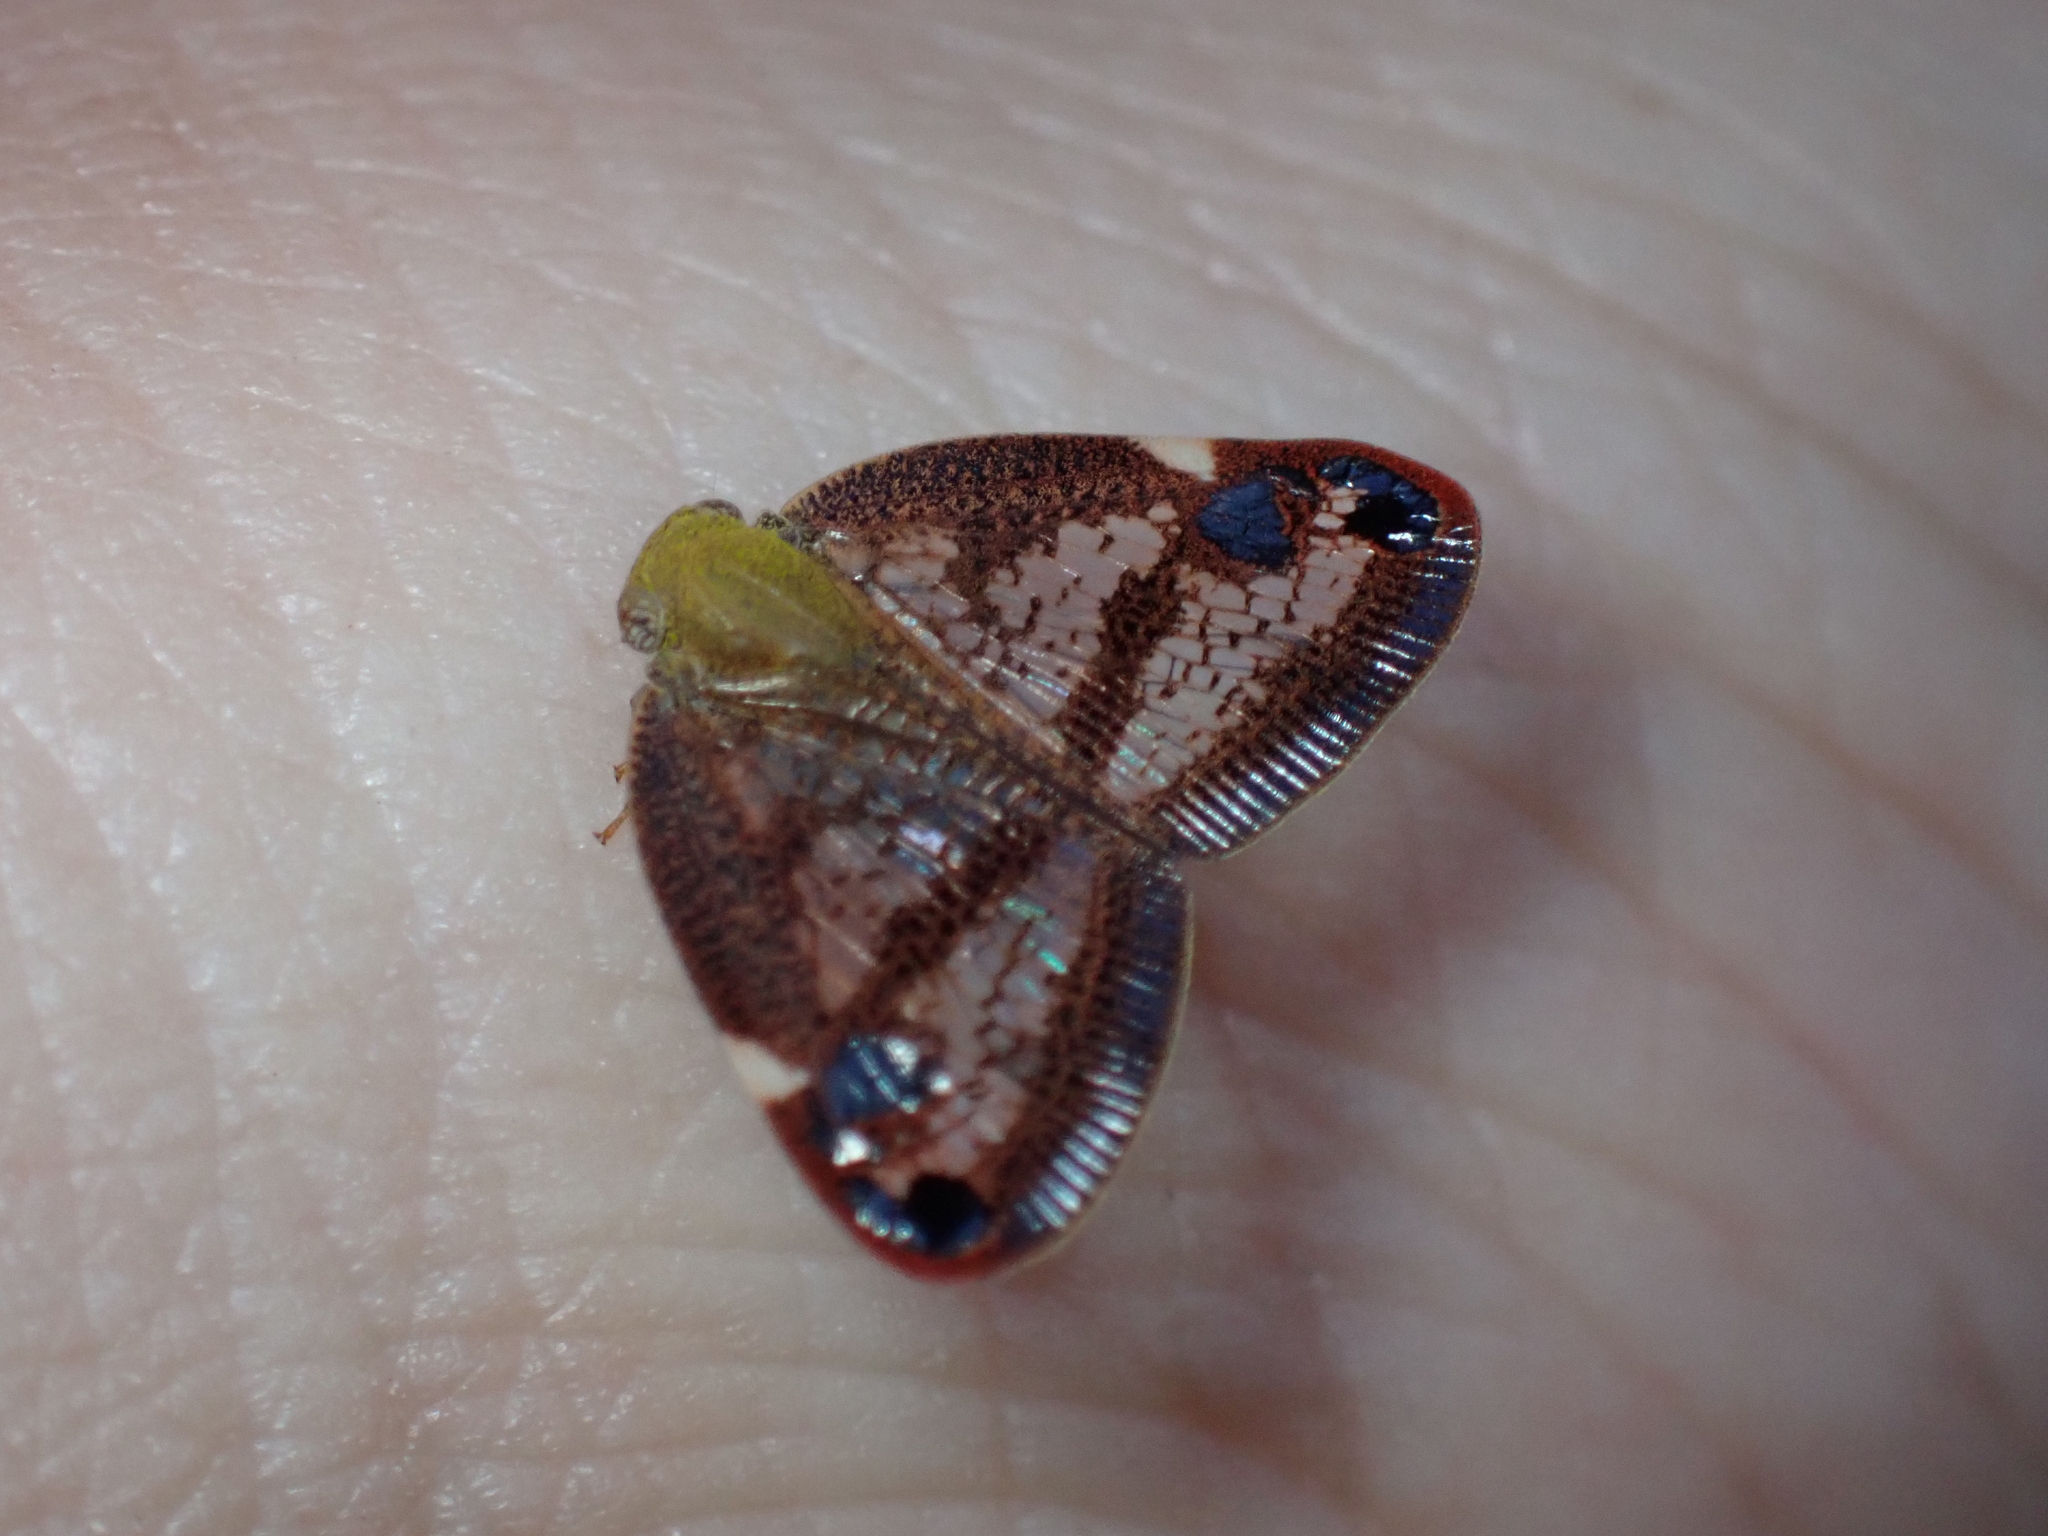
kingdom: Animalia
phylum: Arthropoda
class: Insecta
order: Hemiptera
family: Ricaniidae
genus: Parapiromis
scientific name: Parapiromis translucida
